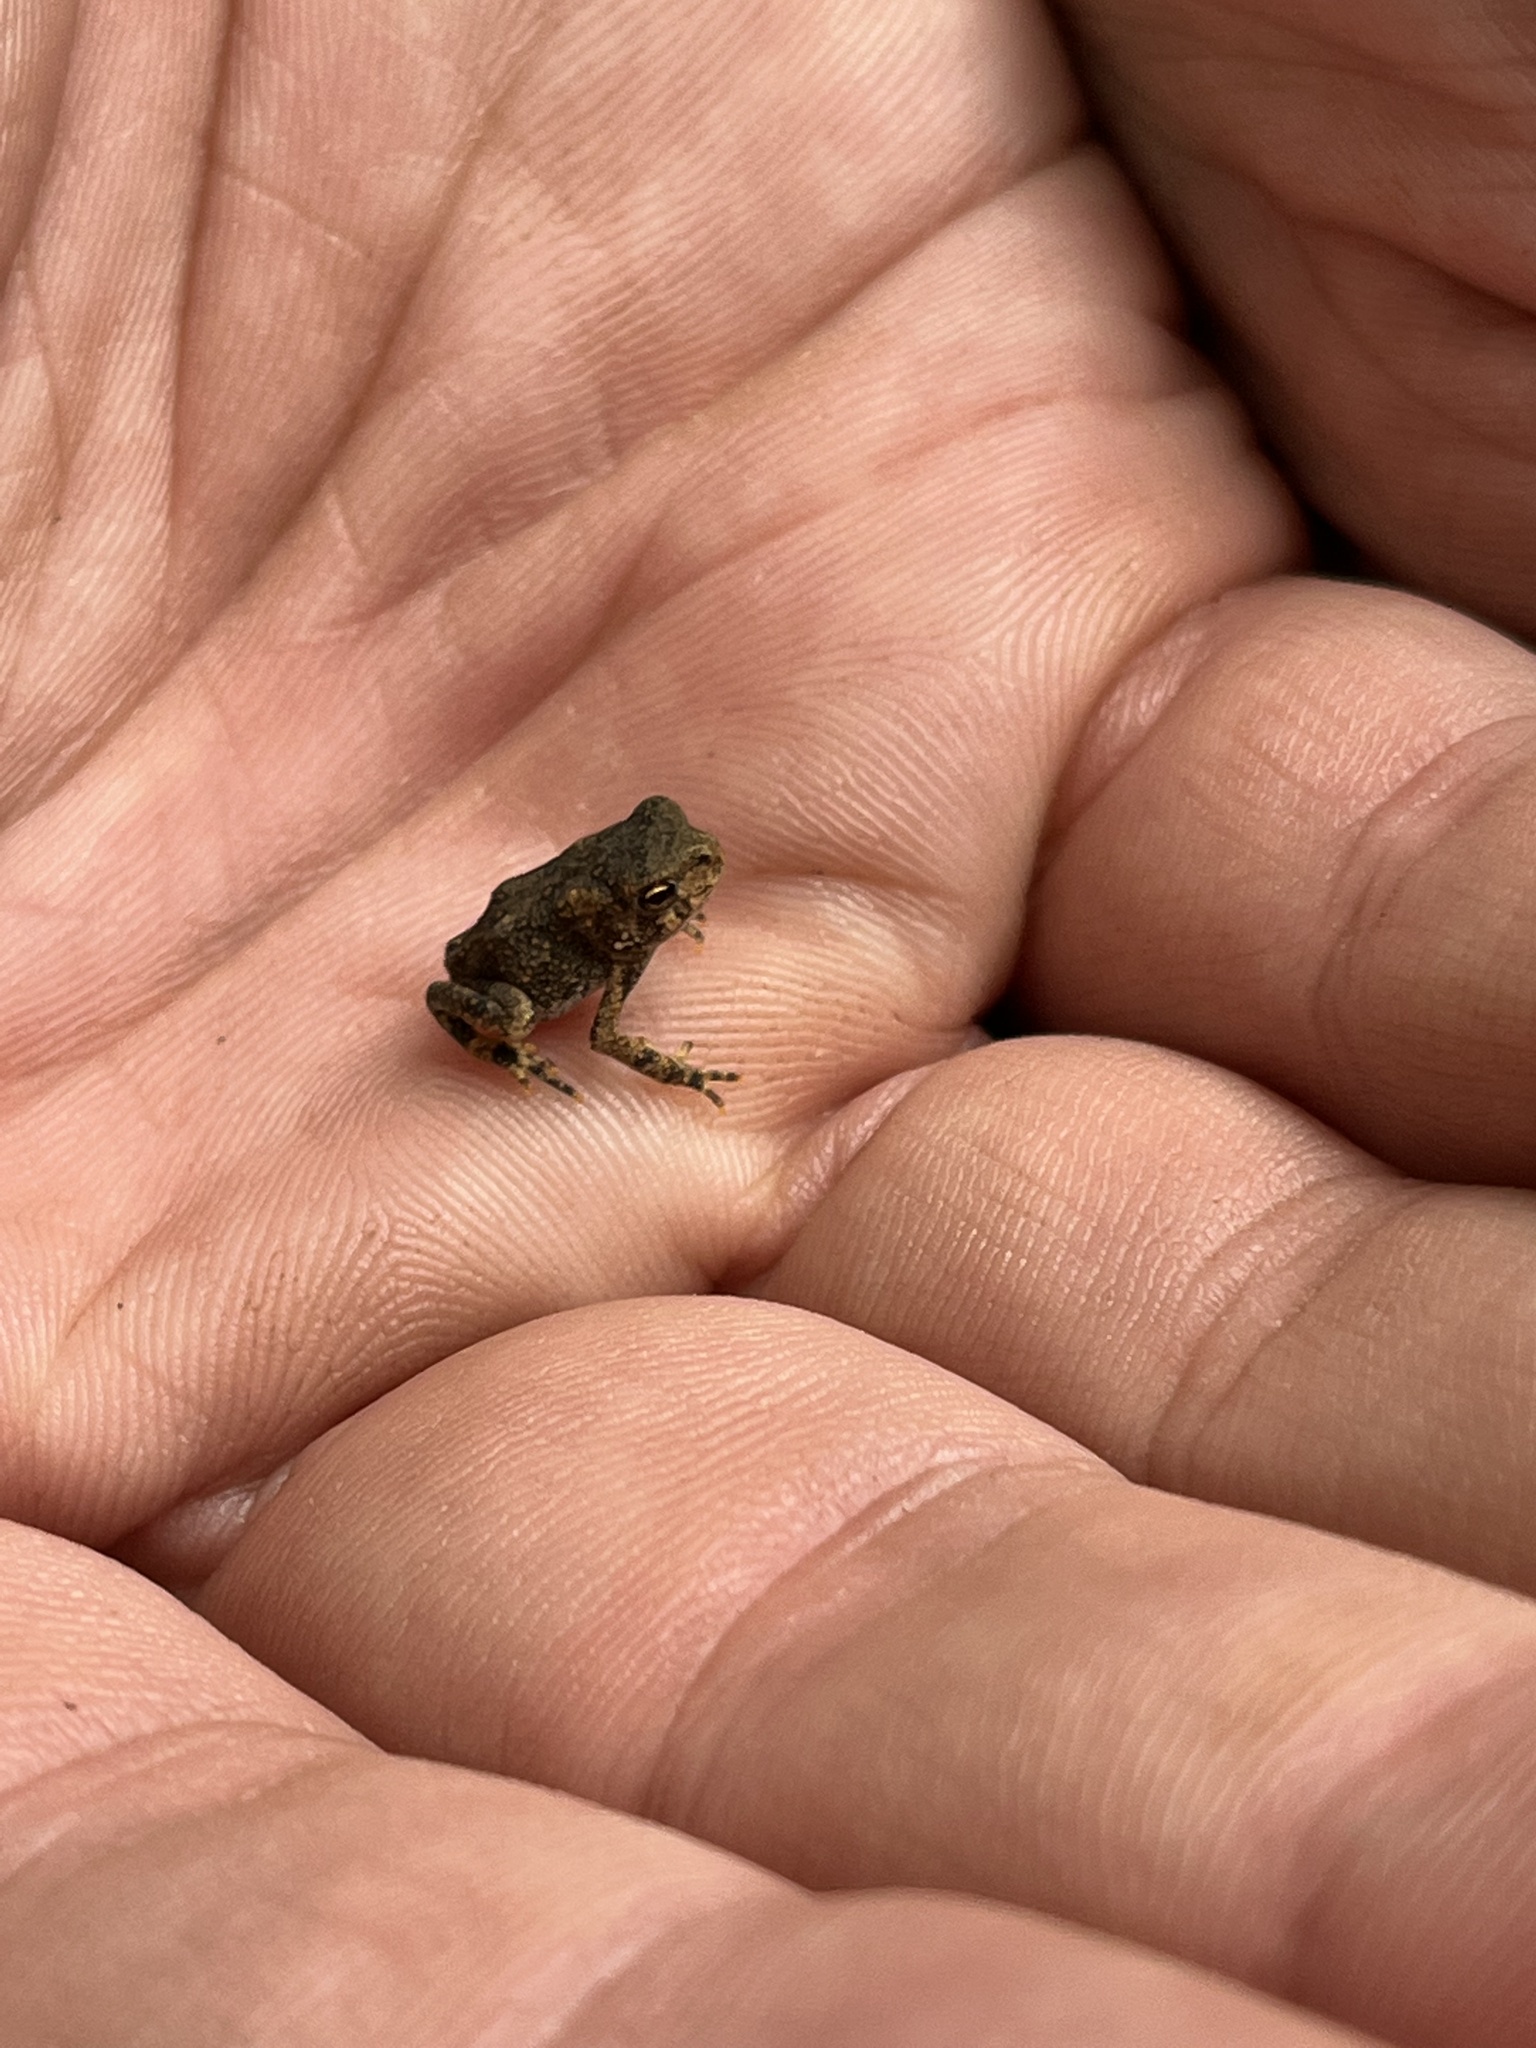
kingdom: Animalia
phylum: Chordata
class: Amphibia
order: Anura
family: Bufonidae
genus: Anaxyrus
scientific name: Anaxyrus americanus
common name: American toad
